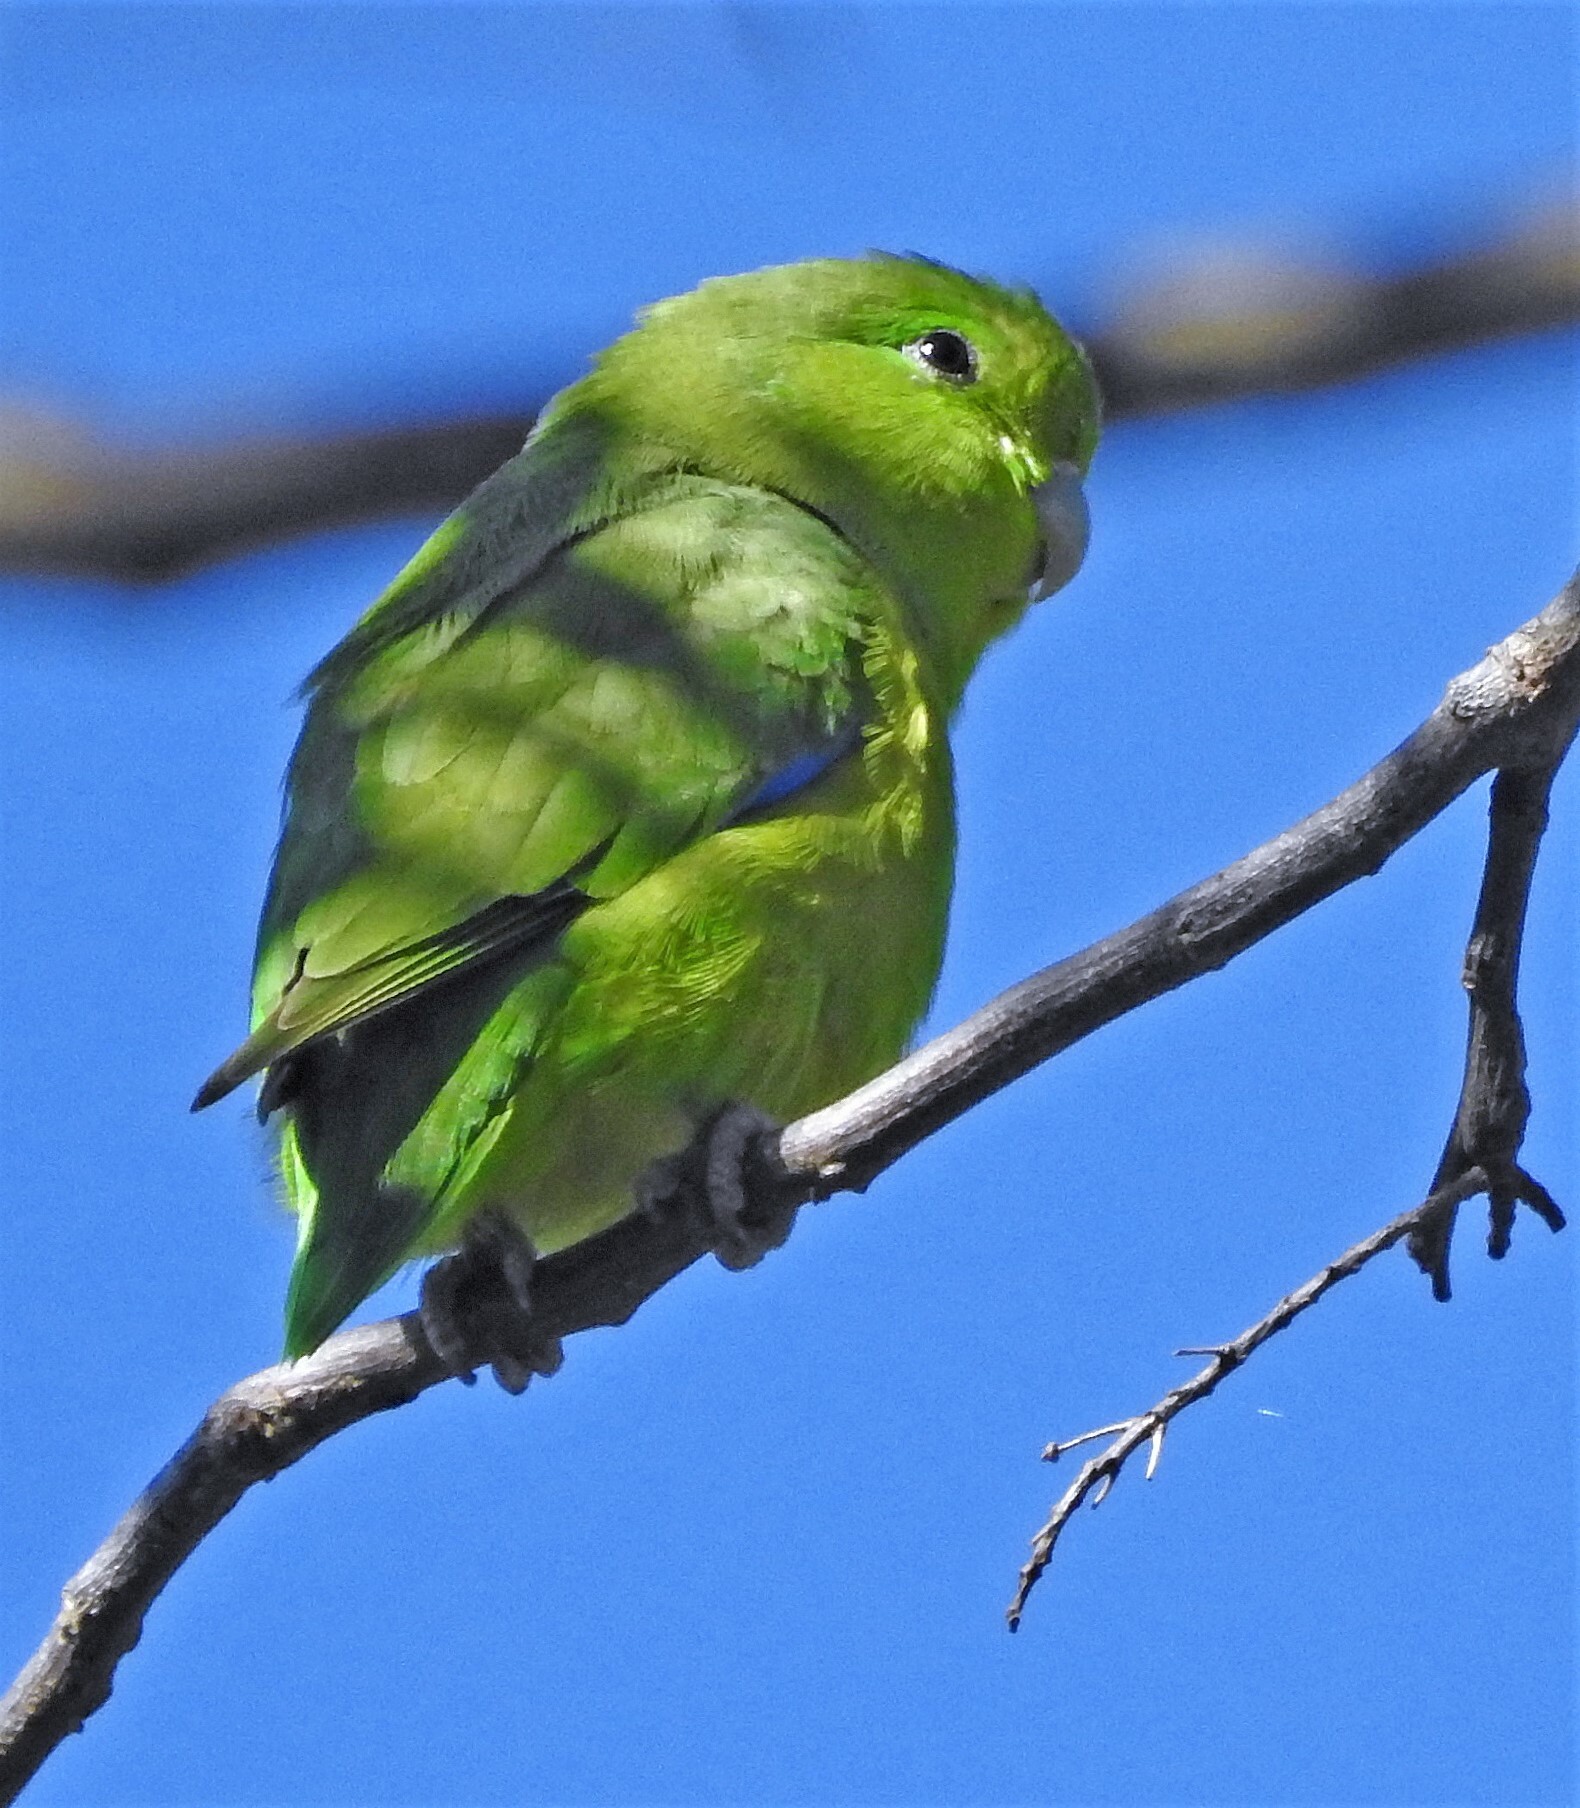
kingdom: Animalia
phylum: Chordata
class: Aves
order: Psittaciformes
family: Psittacidae
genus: Forpus
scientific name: Forpus xanthopterygius
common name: Blue-winged parrotlet
